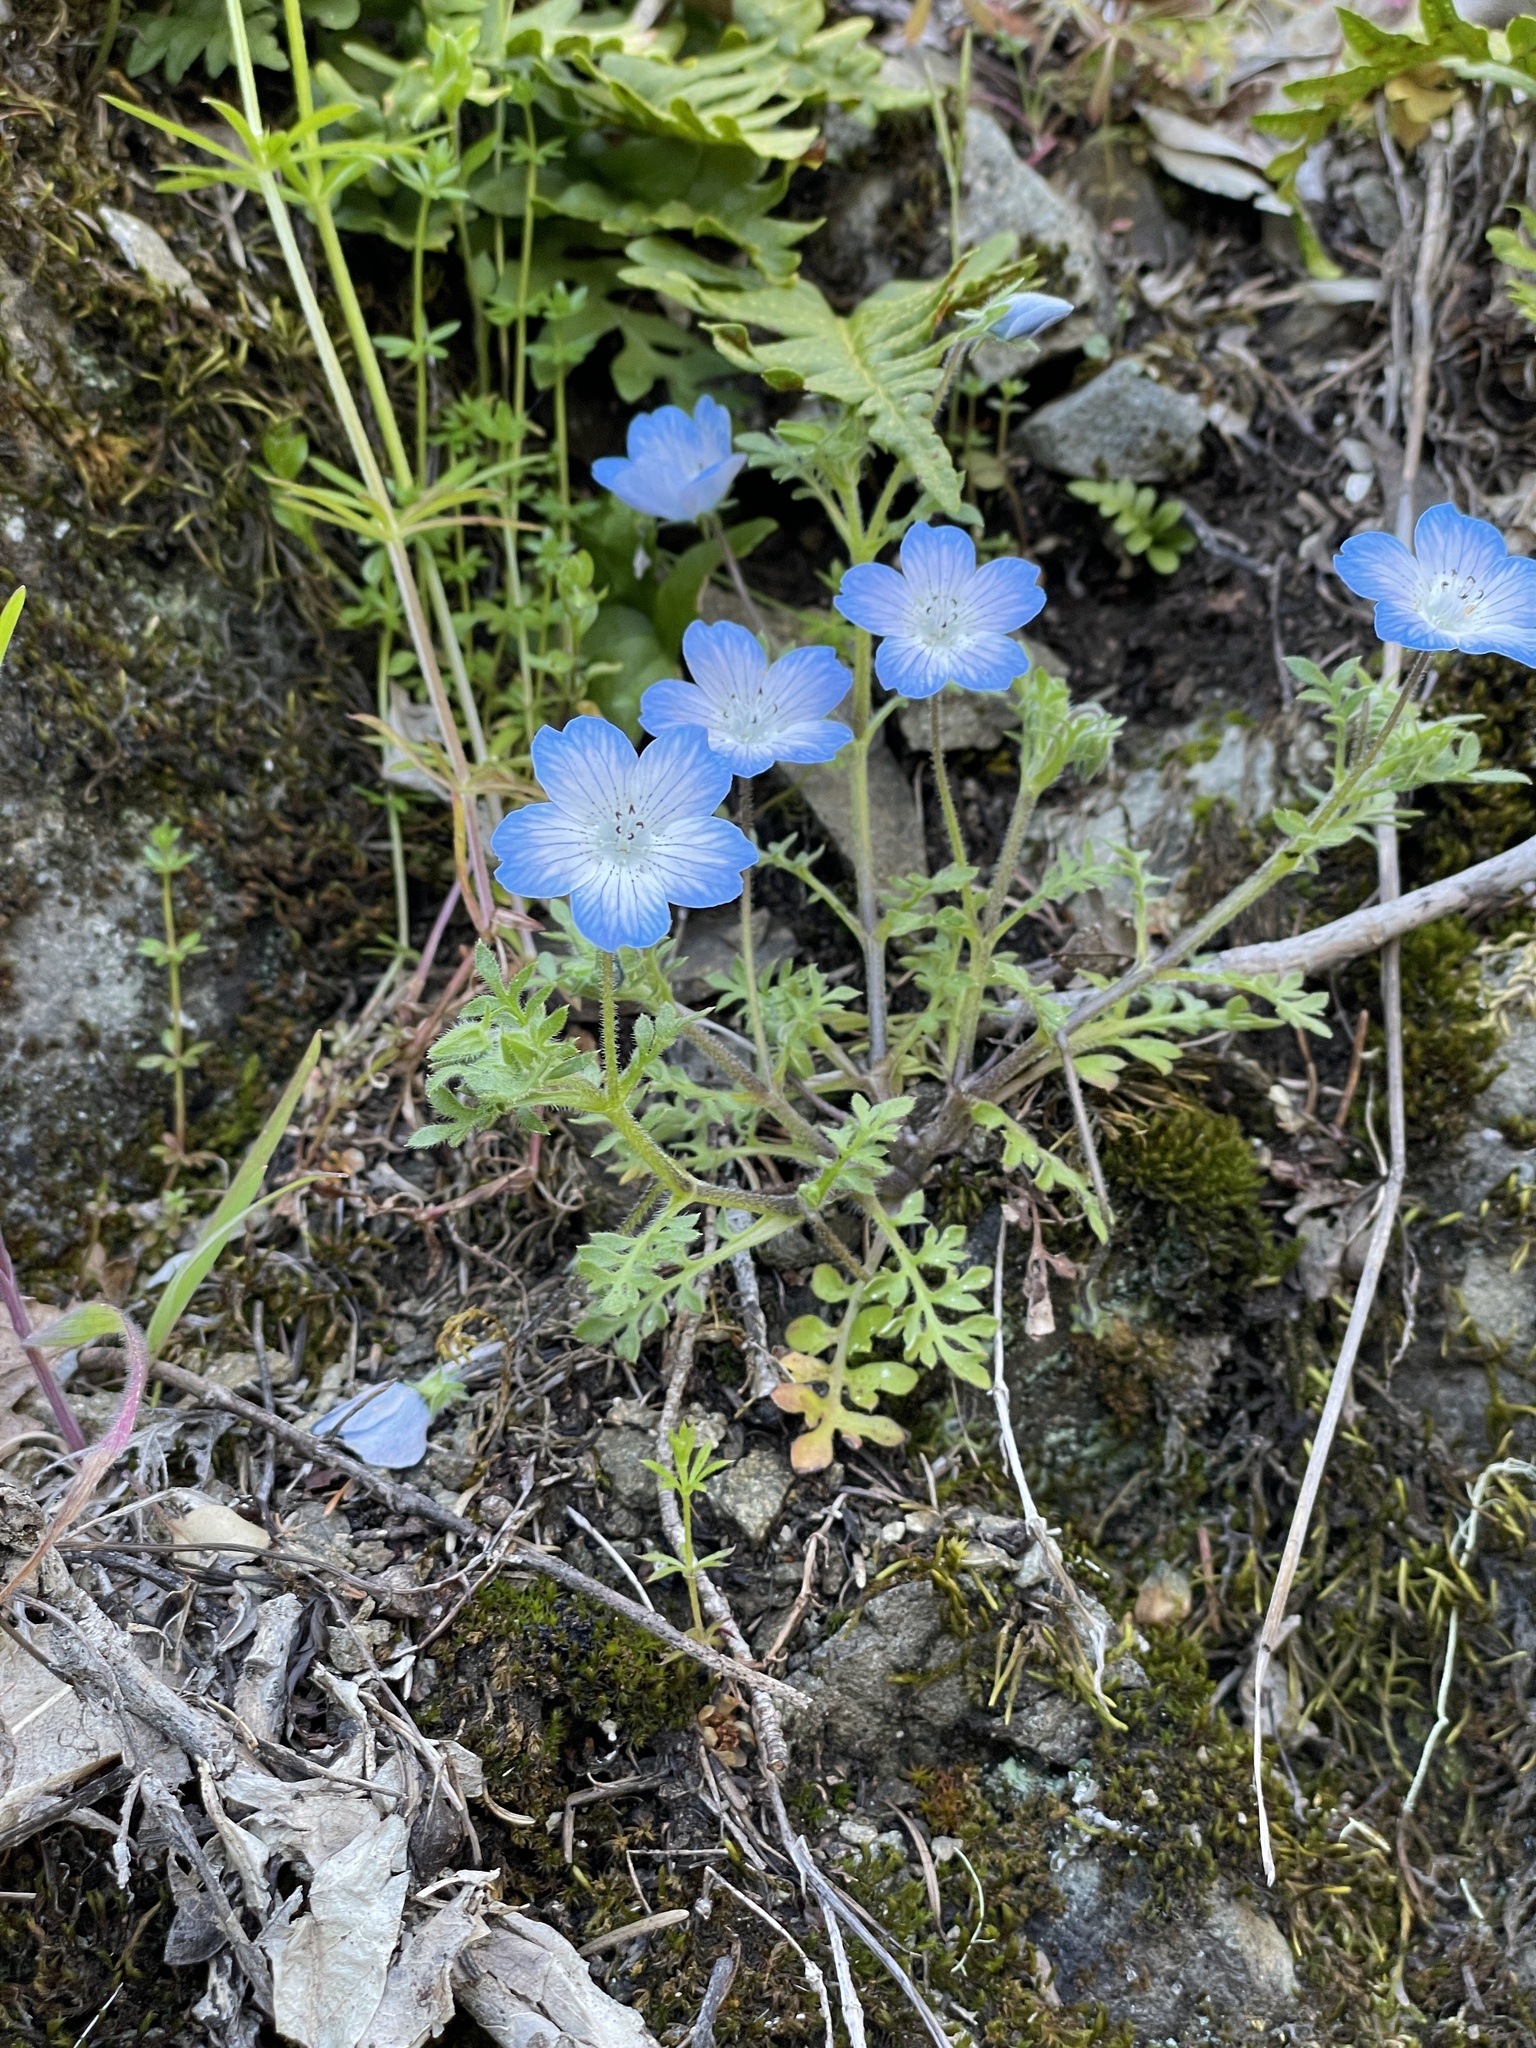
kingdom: Plantae
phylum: Tracheophyta
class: Magnoliopsida
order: Boraginales
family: Hydrophyllaceae
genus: Nemophila
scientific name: Nemophila menziesii
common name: Baby's-blue-eyes
